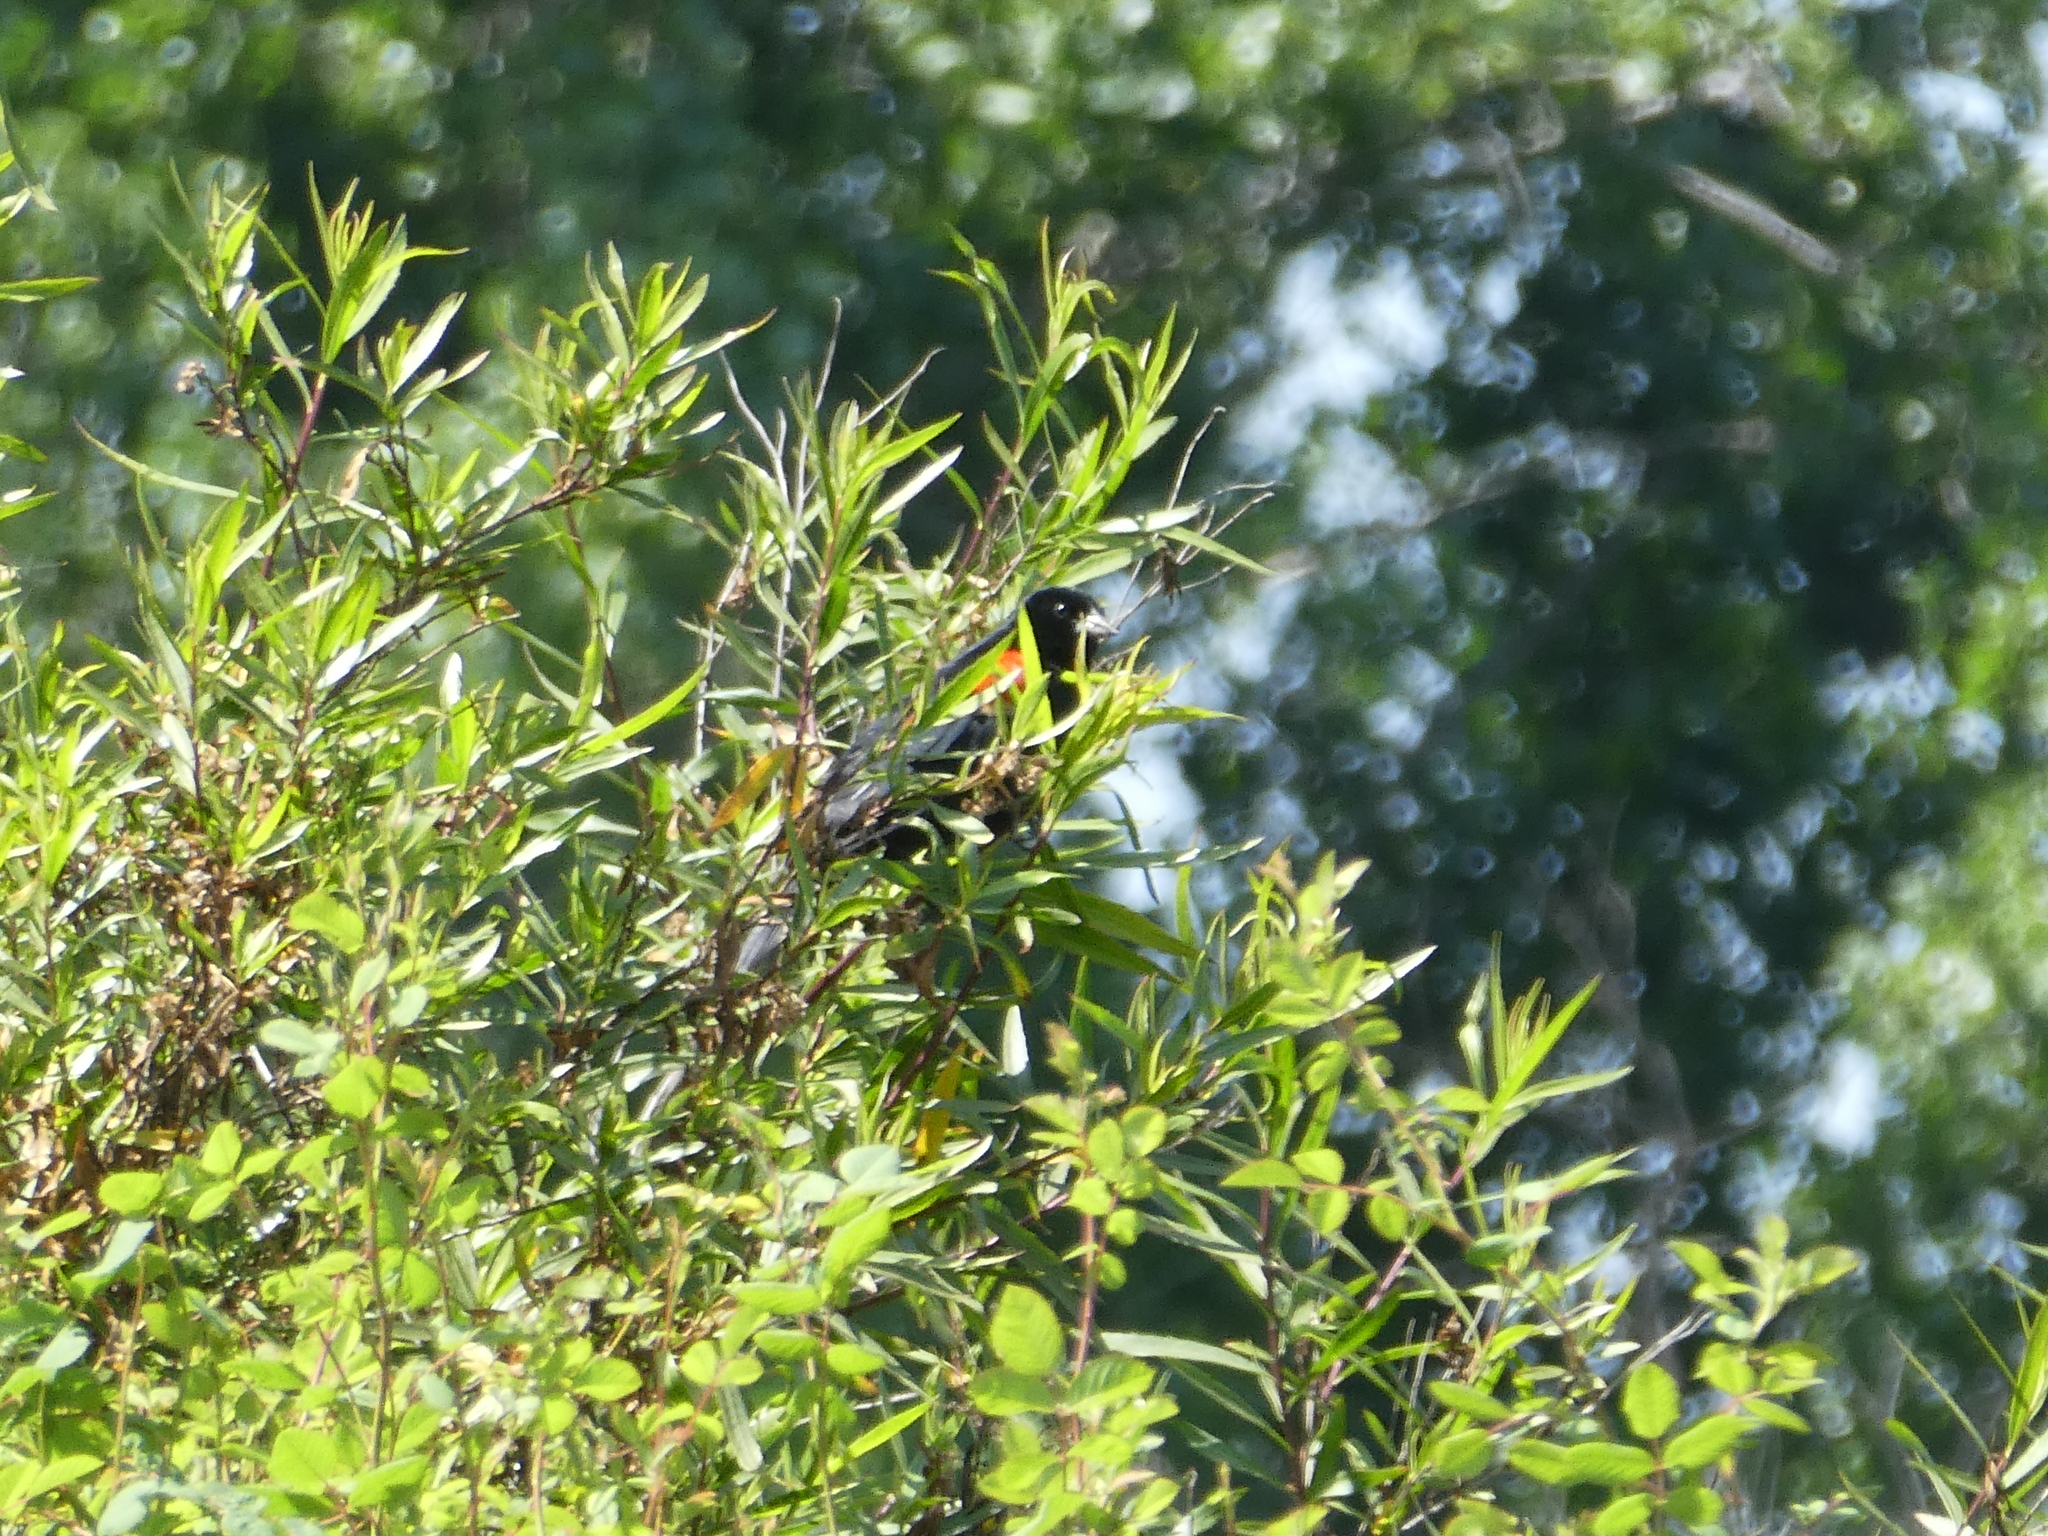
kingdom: Animalia
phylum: Chordata
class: Aves
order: Passeriformes
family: Icteridae
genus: Agelaius
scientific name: Agelaius phoeniceus
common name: Red-winged blackbird
